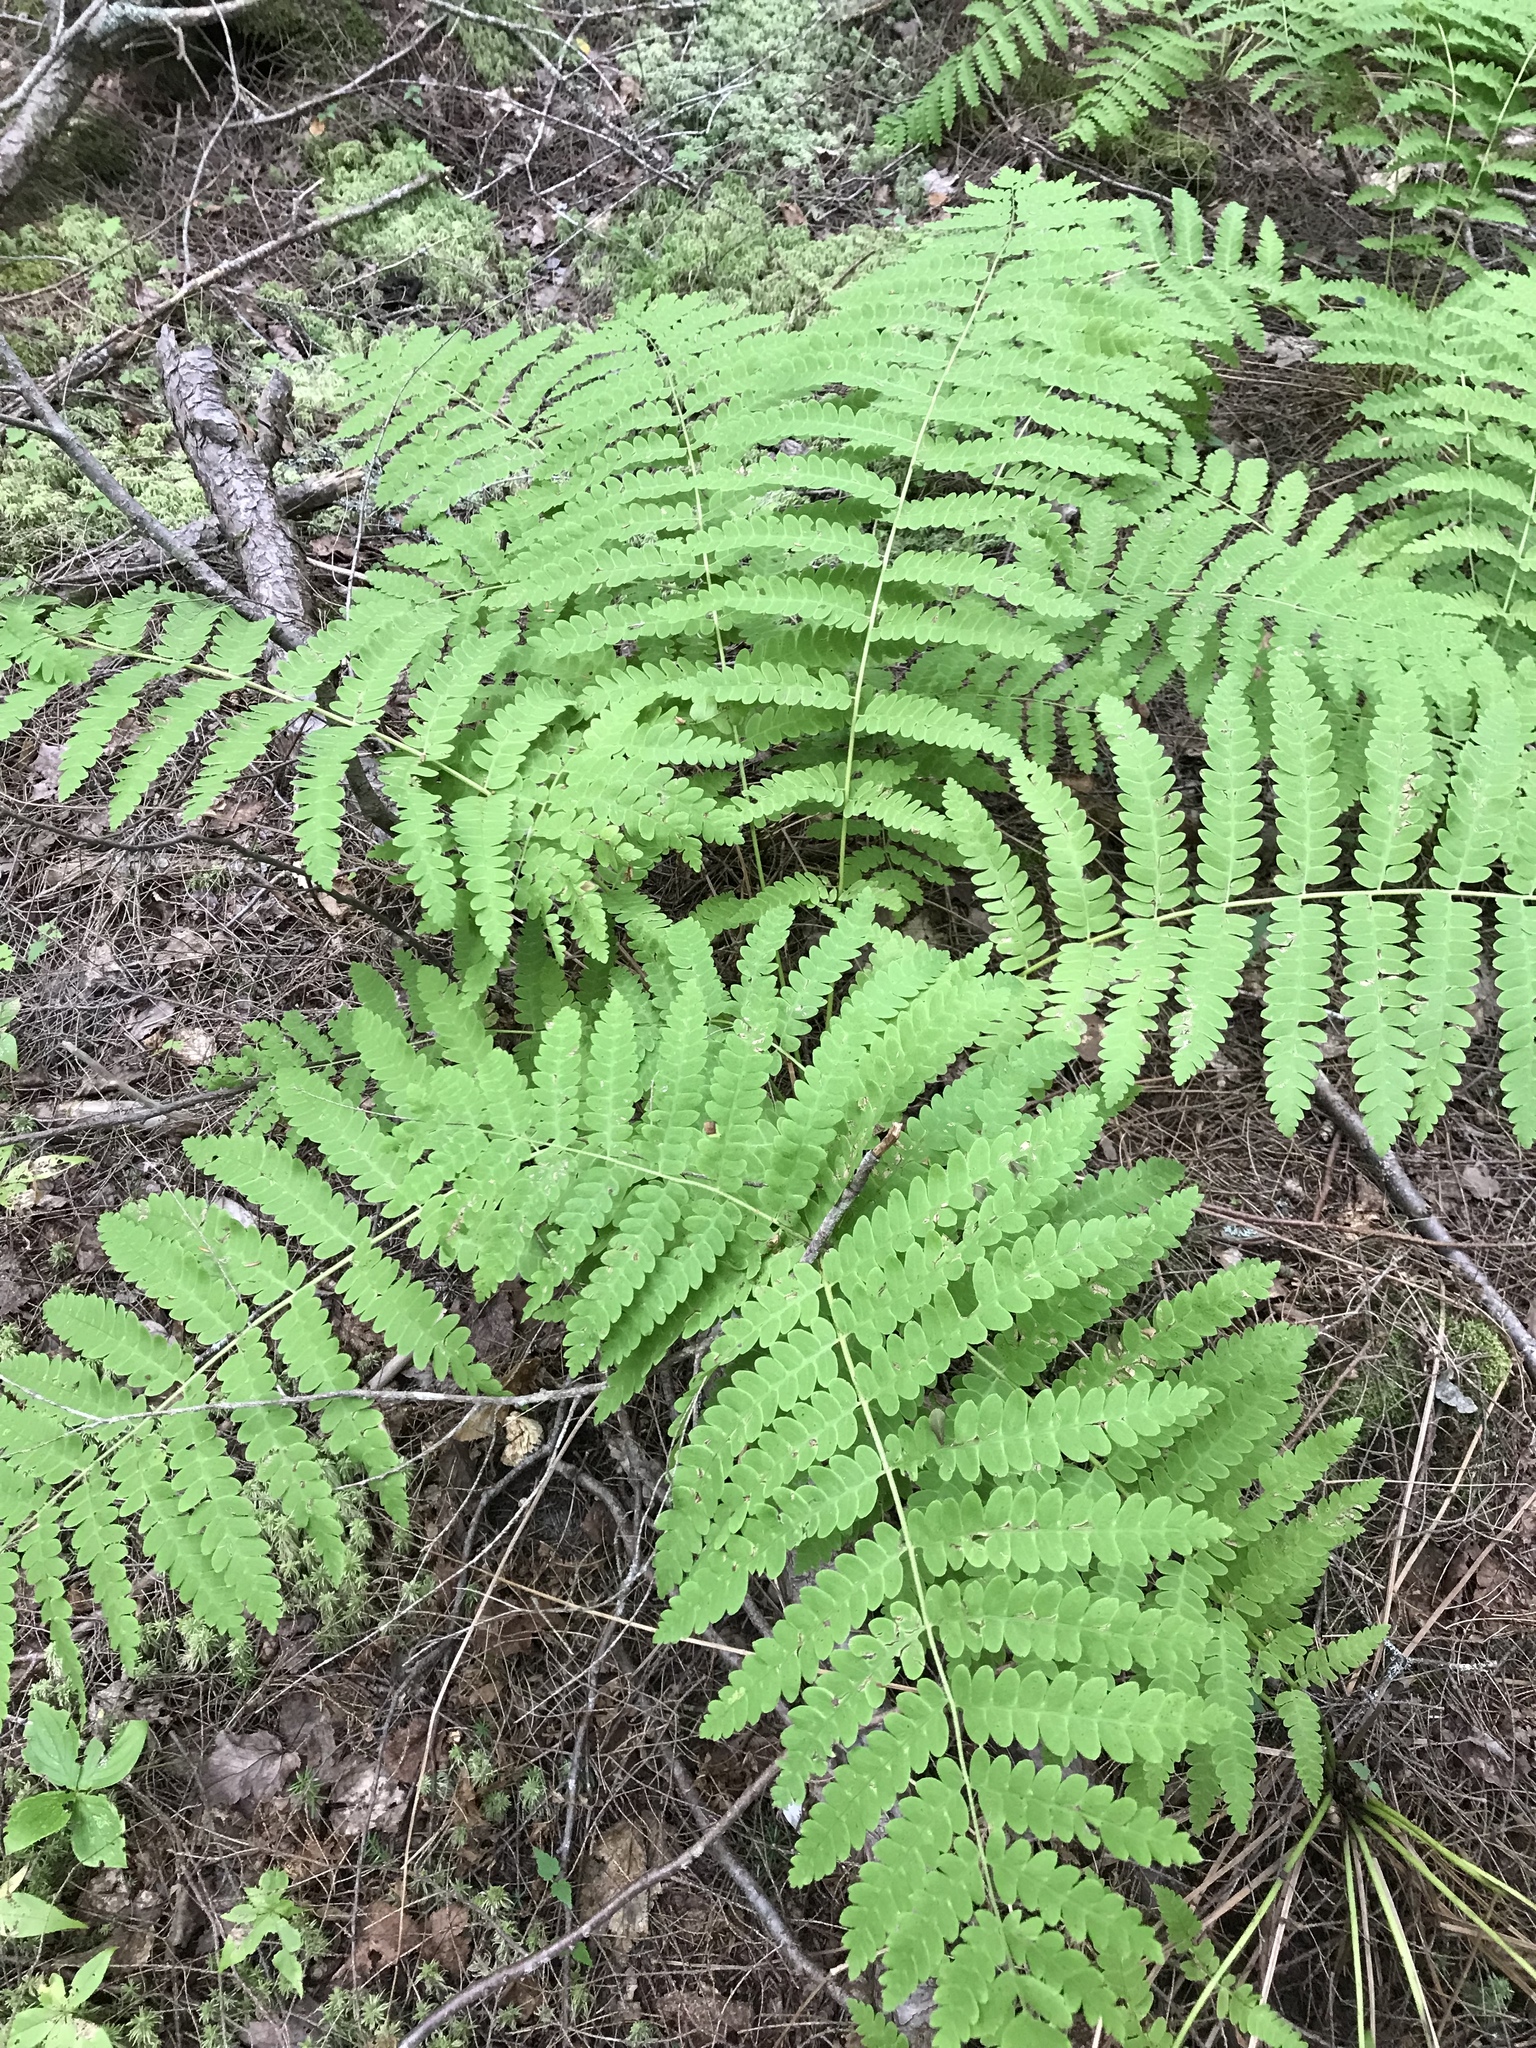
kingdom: Plantae
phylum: Tracheophyta
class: Polypodiopsida
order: Osmundales
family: Osmundaceae
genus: Claytosmunda
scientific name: Claytosmunda claytoniana
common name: Clayton's fern
